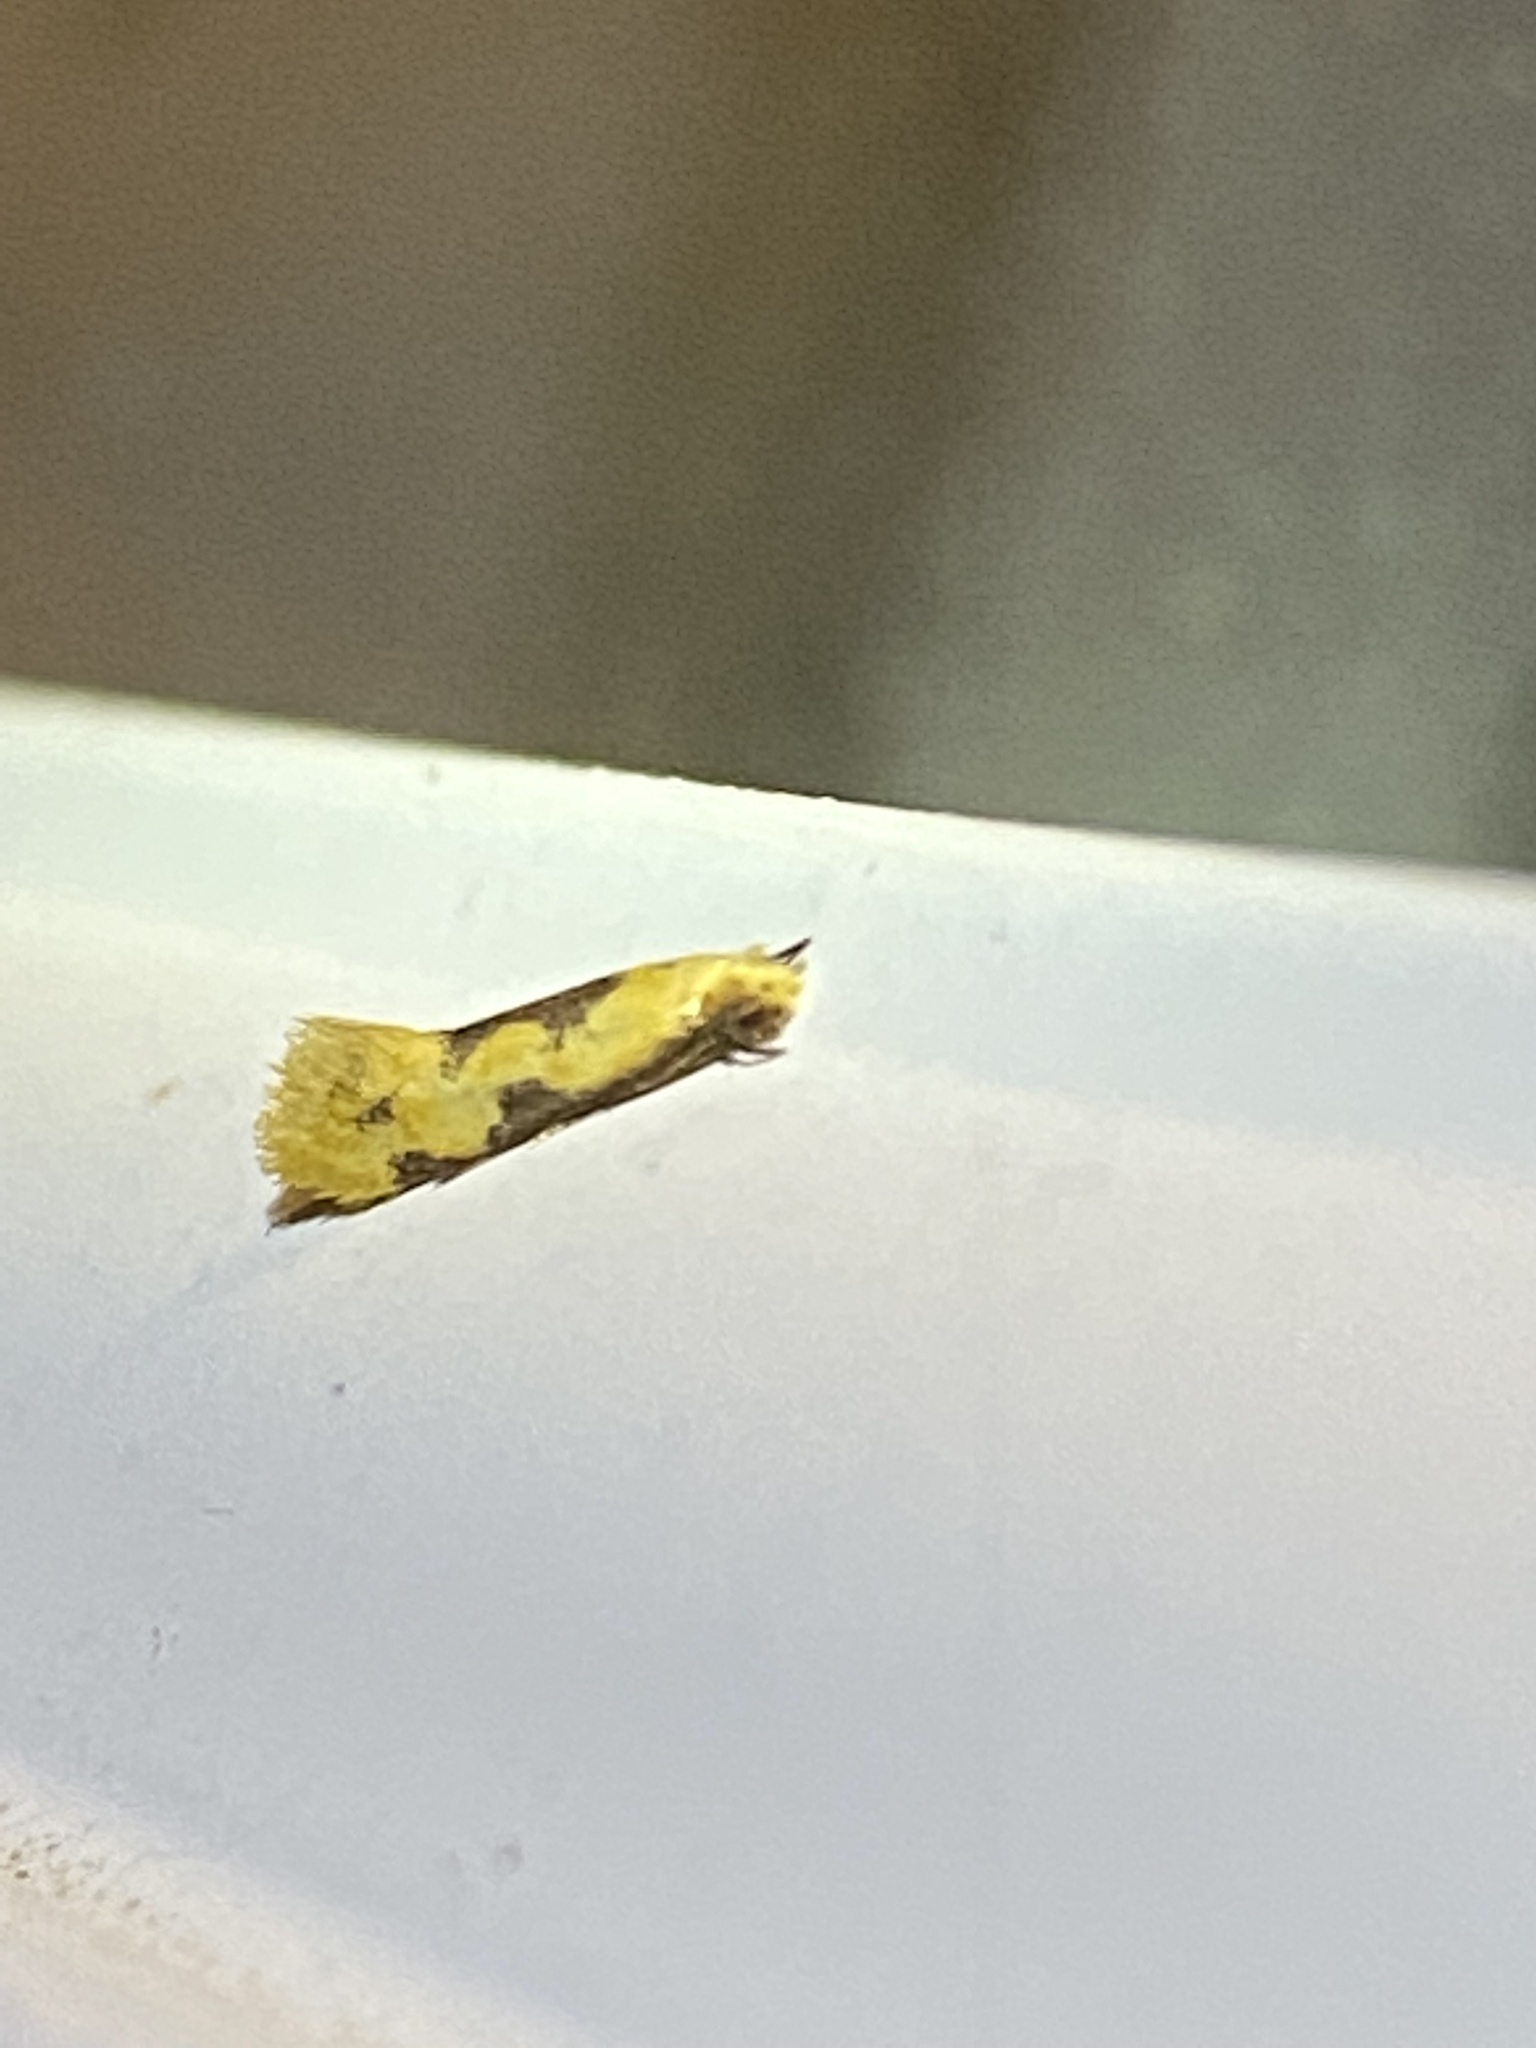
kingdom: Animalia
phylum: Arthropoda
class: Insecta
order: Lepidoptera
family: Meessiidae
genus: Hybroma
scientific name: Hybroma servulella
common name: Yellow wave moth
